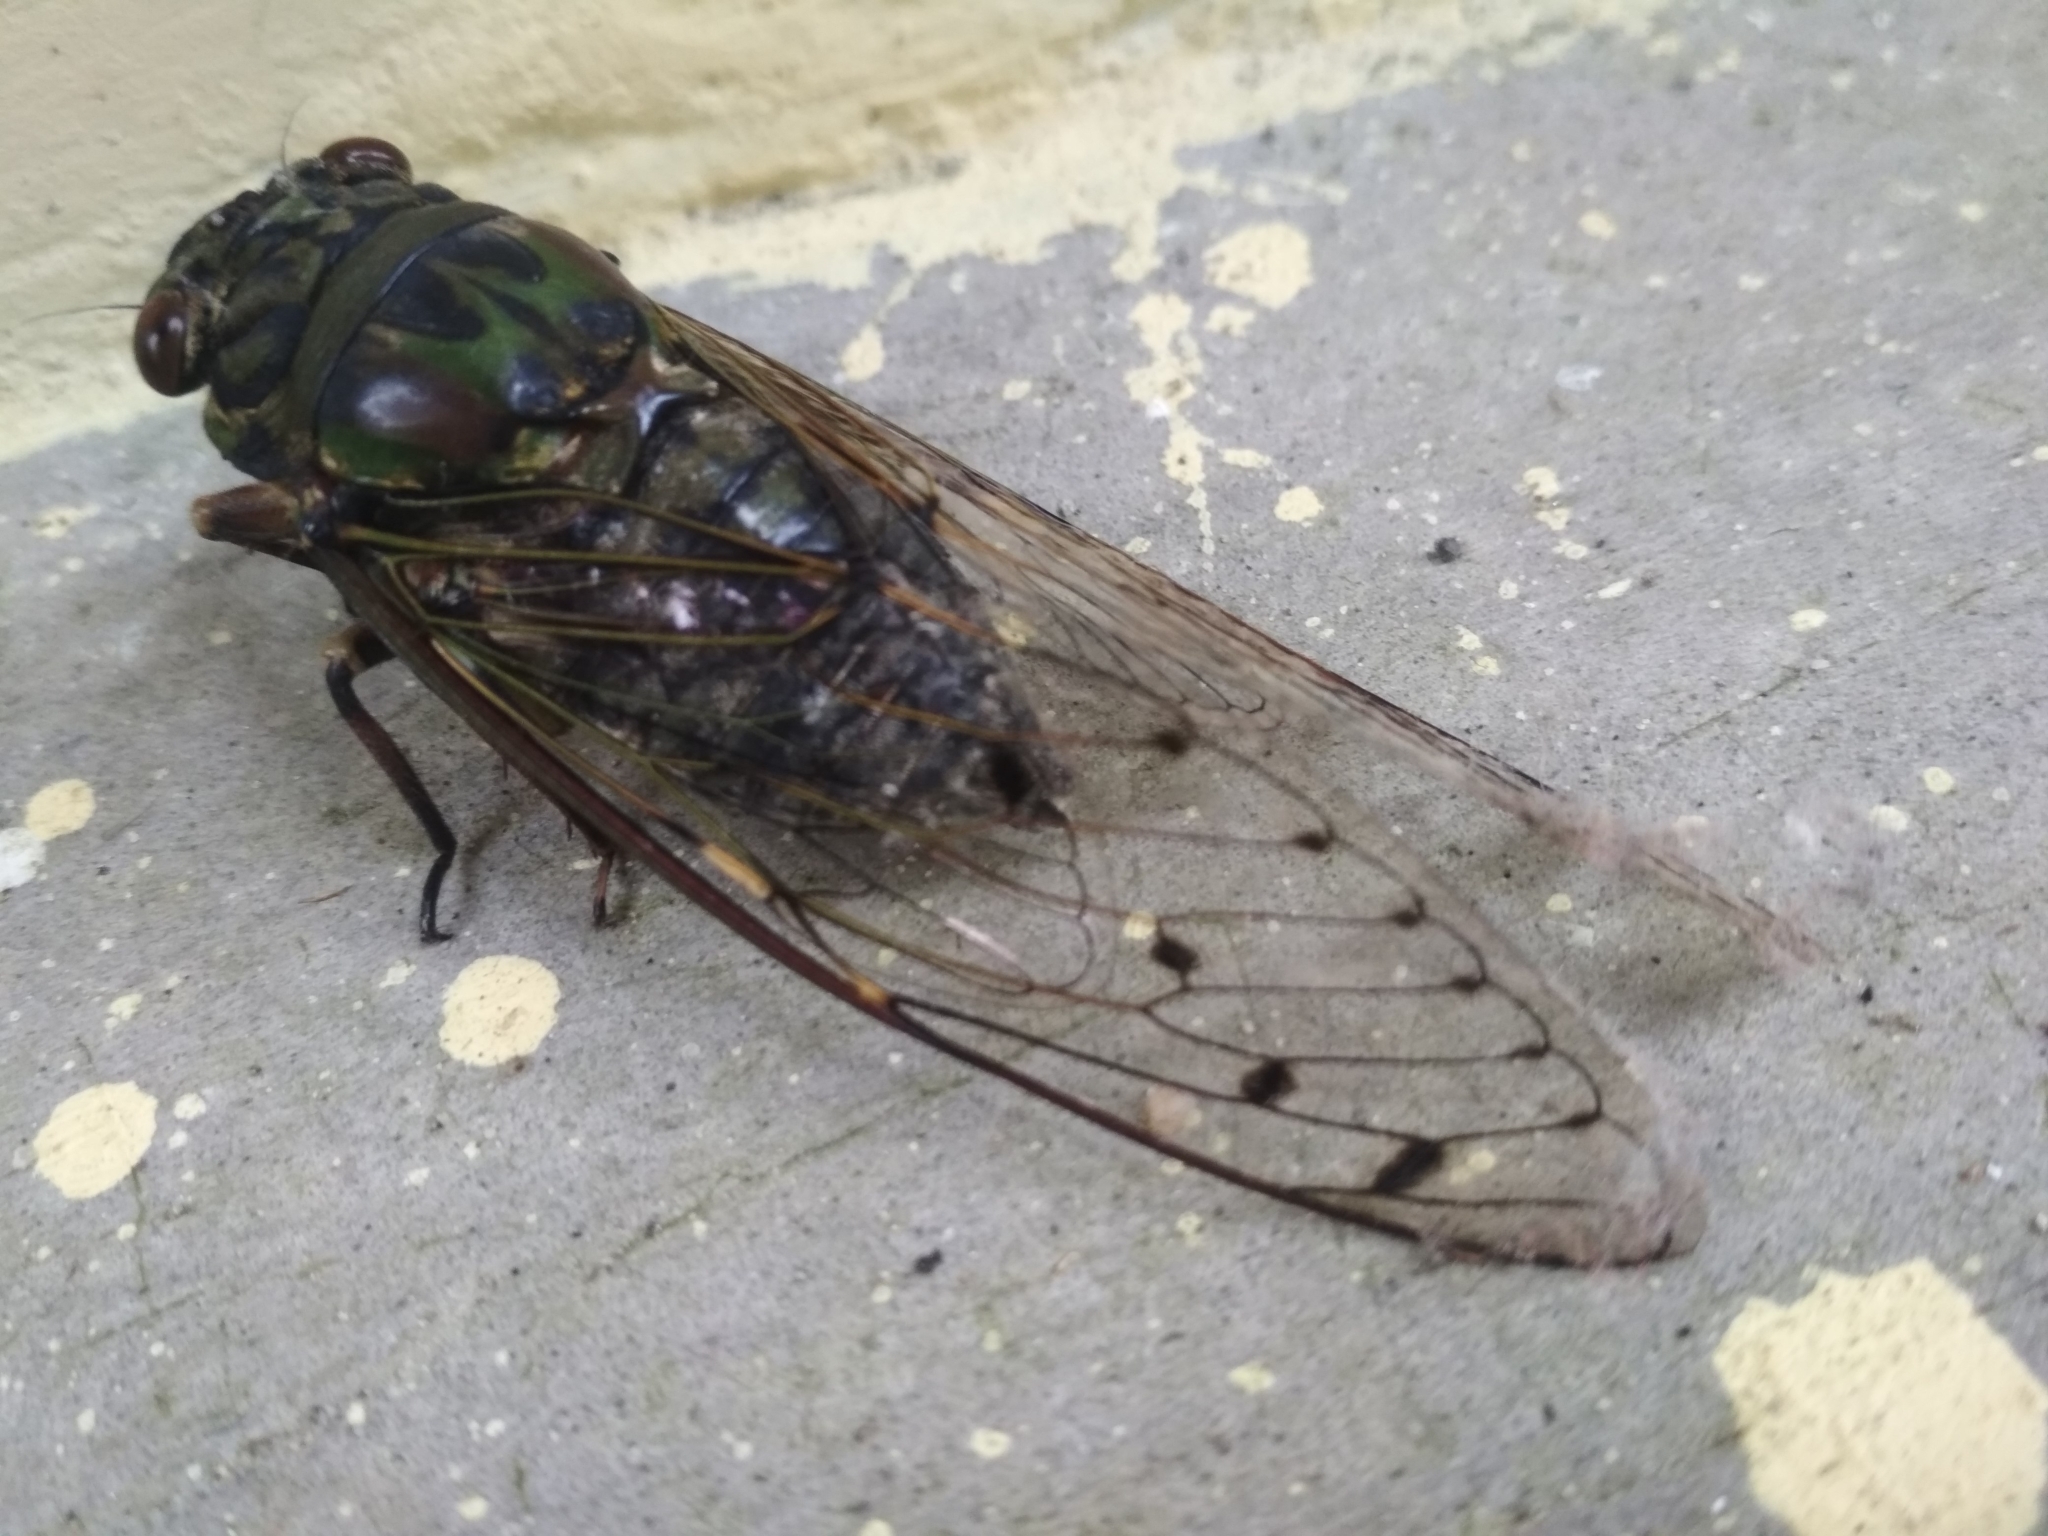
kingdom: Animalia
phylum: Arthropoda
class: Insecta
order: Hemiptera
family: Cicadidae
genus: Macrosemia
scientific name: Macrosemia umbrata
